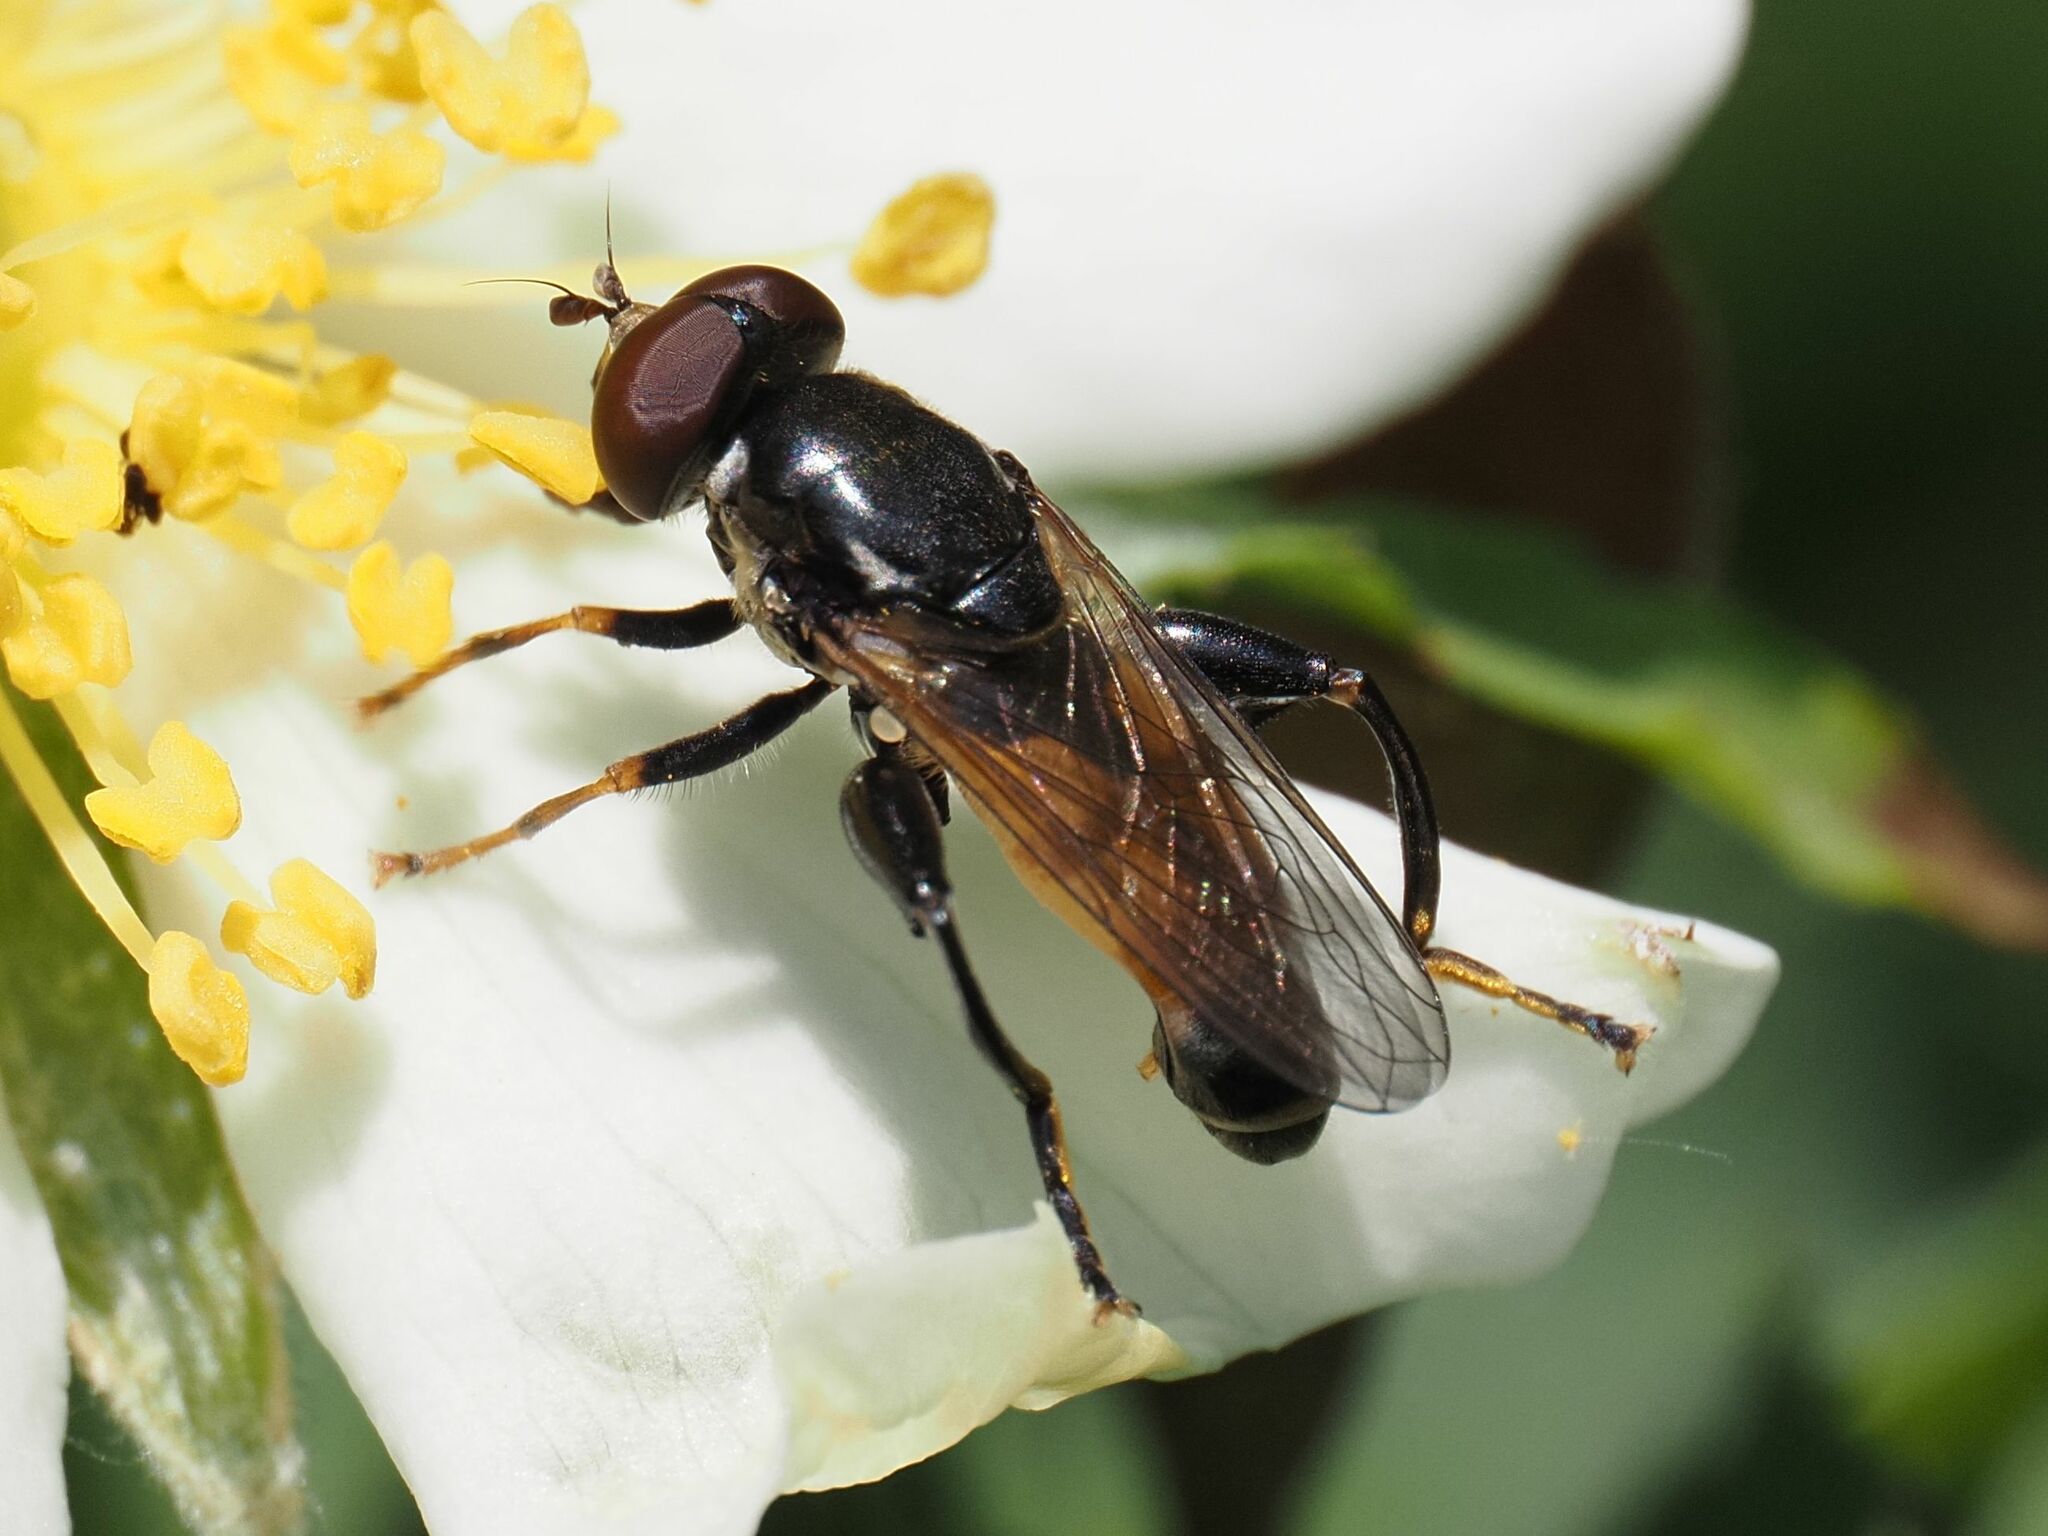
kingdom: Animalia
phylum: Arthropoda
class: Insecta
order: Diptera
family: Syrphidae
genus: Tropidia
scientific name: Tropidia scita
